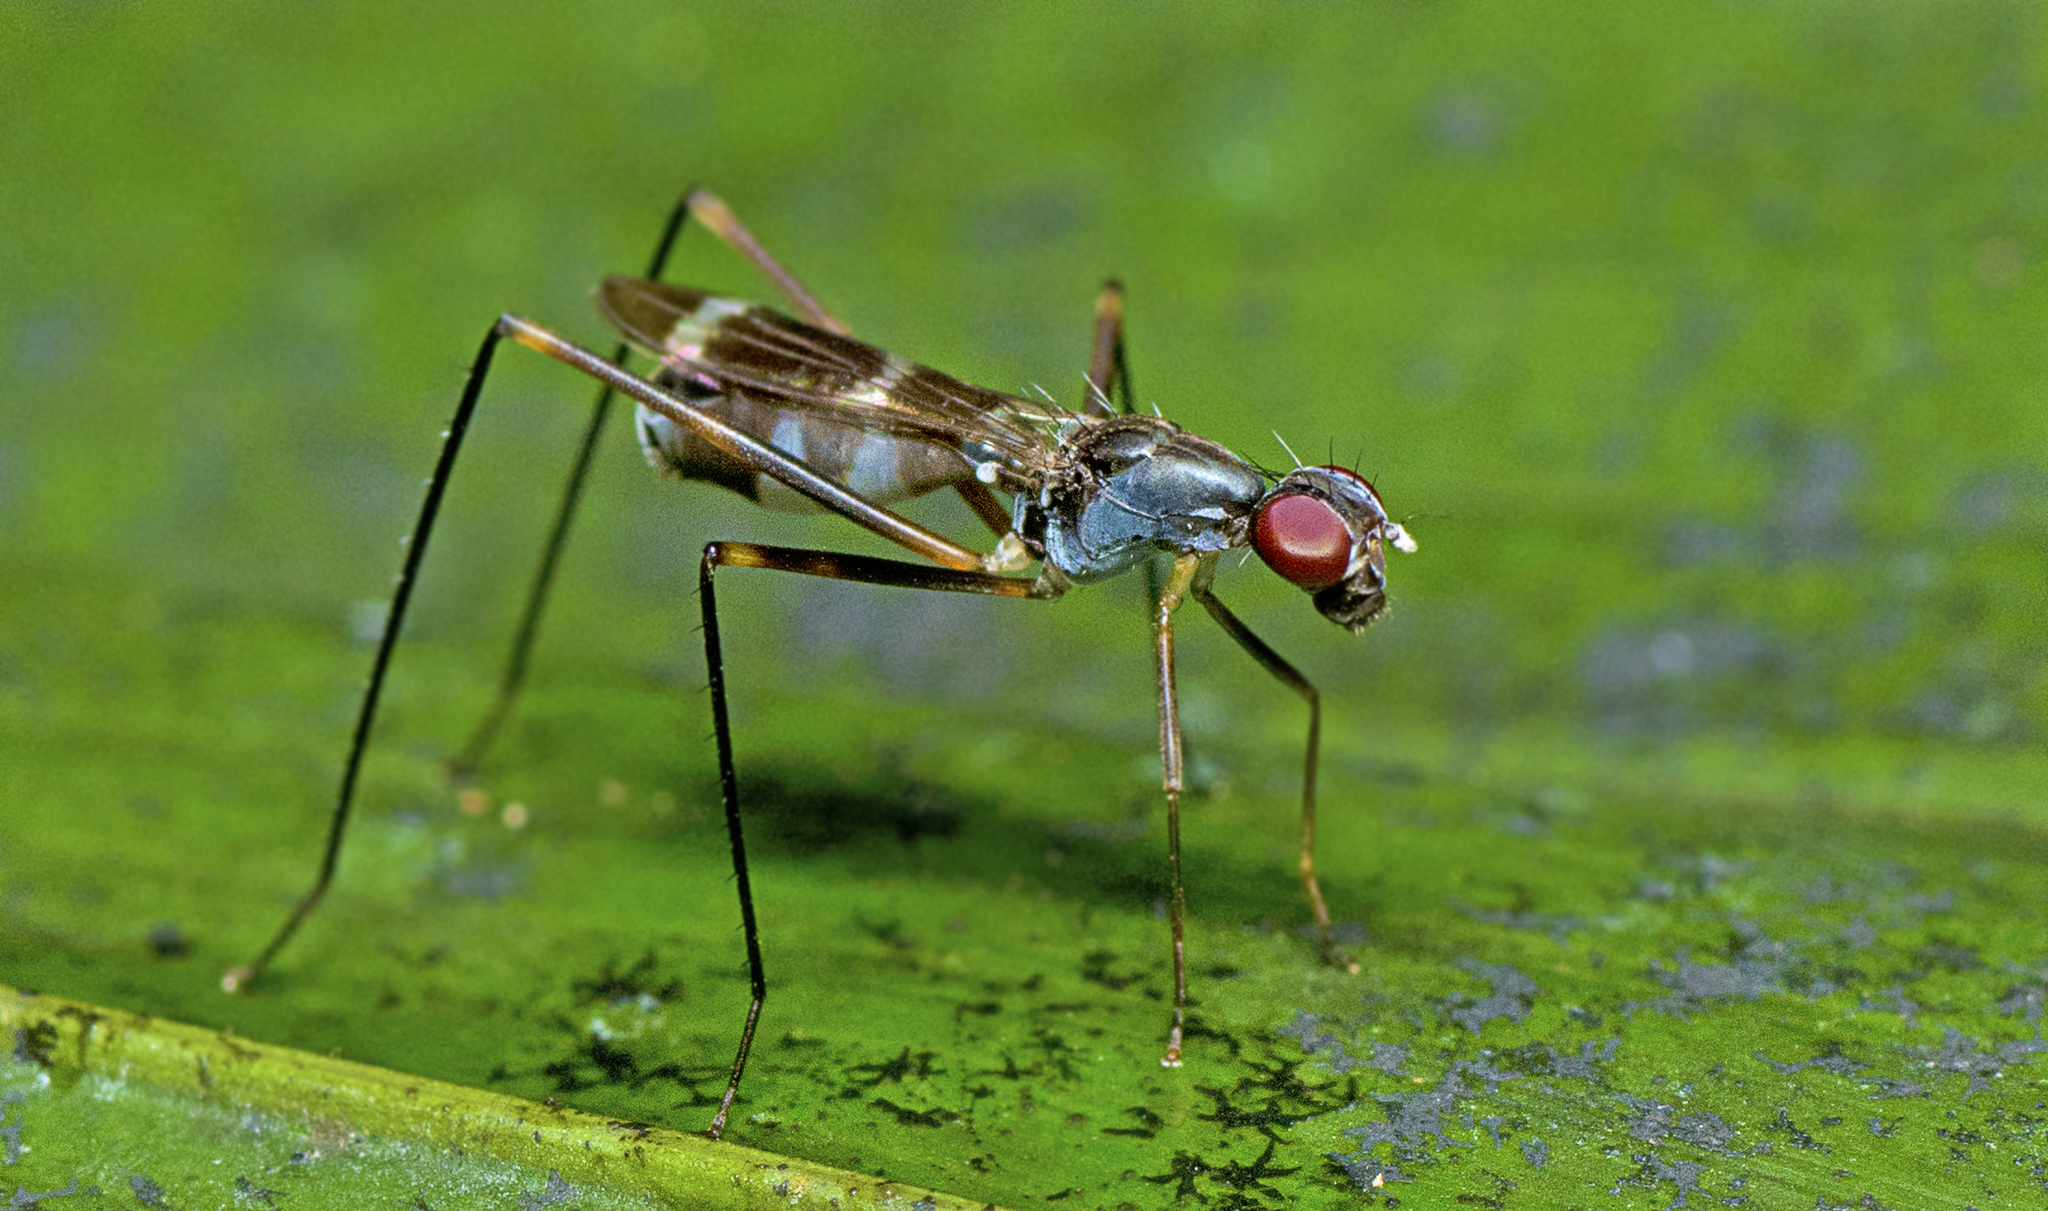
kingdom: Animalia
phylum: Arthropoda
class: Insecta
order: Diptera
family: Micropezidae
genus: Metopochetus
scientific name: Metopochetus aequalis
